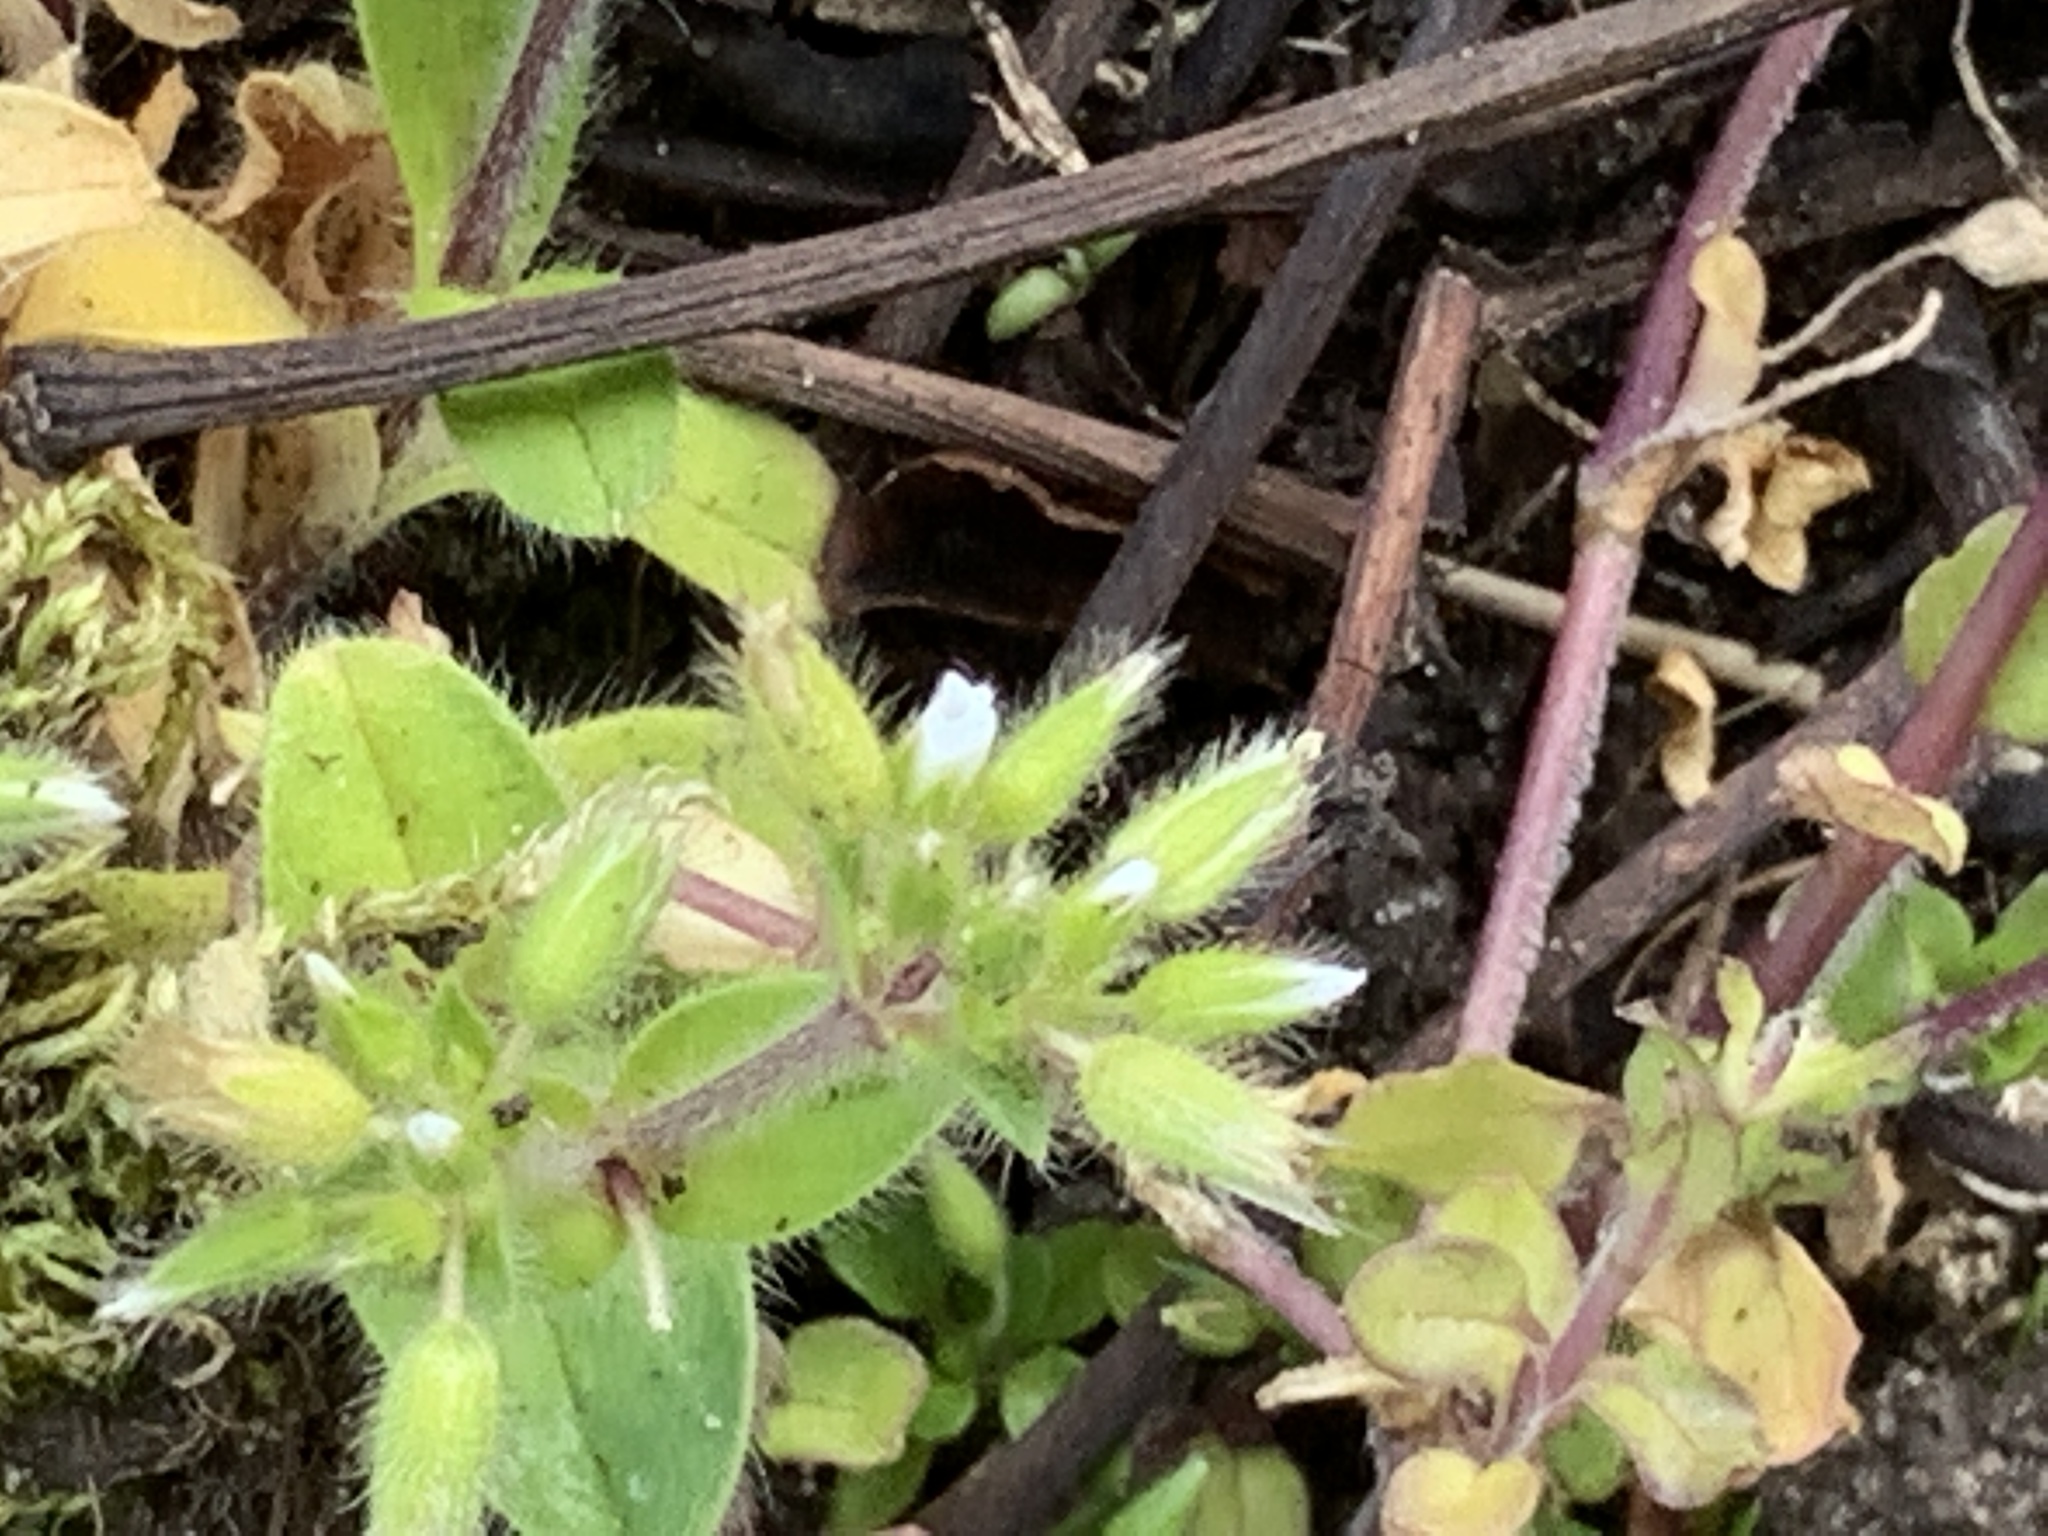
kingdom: Plantae
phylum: Tracheophyta
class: Magnoliopsida
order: Caryophyllales
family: Caryophyllaceae
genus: Cerastium
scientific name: Cerastium glomeratum
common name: Sticky chickweed
